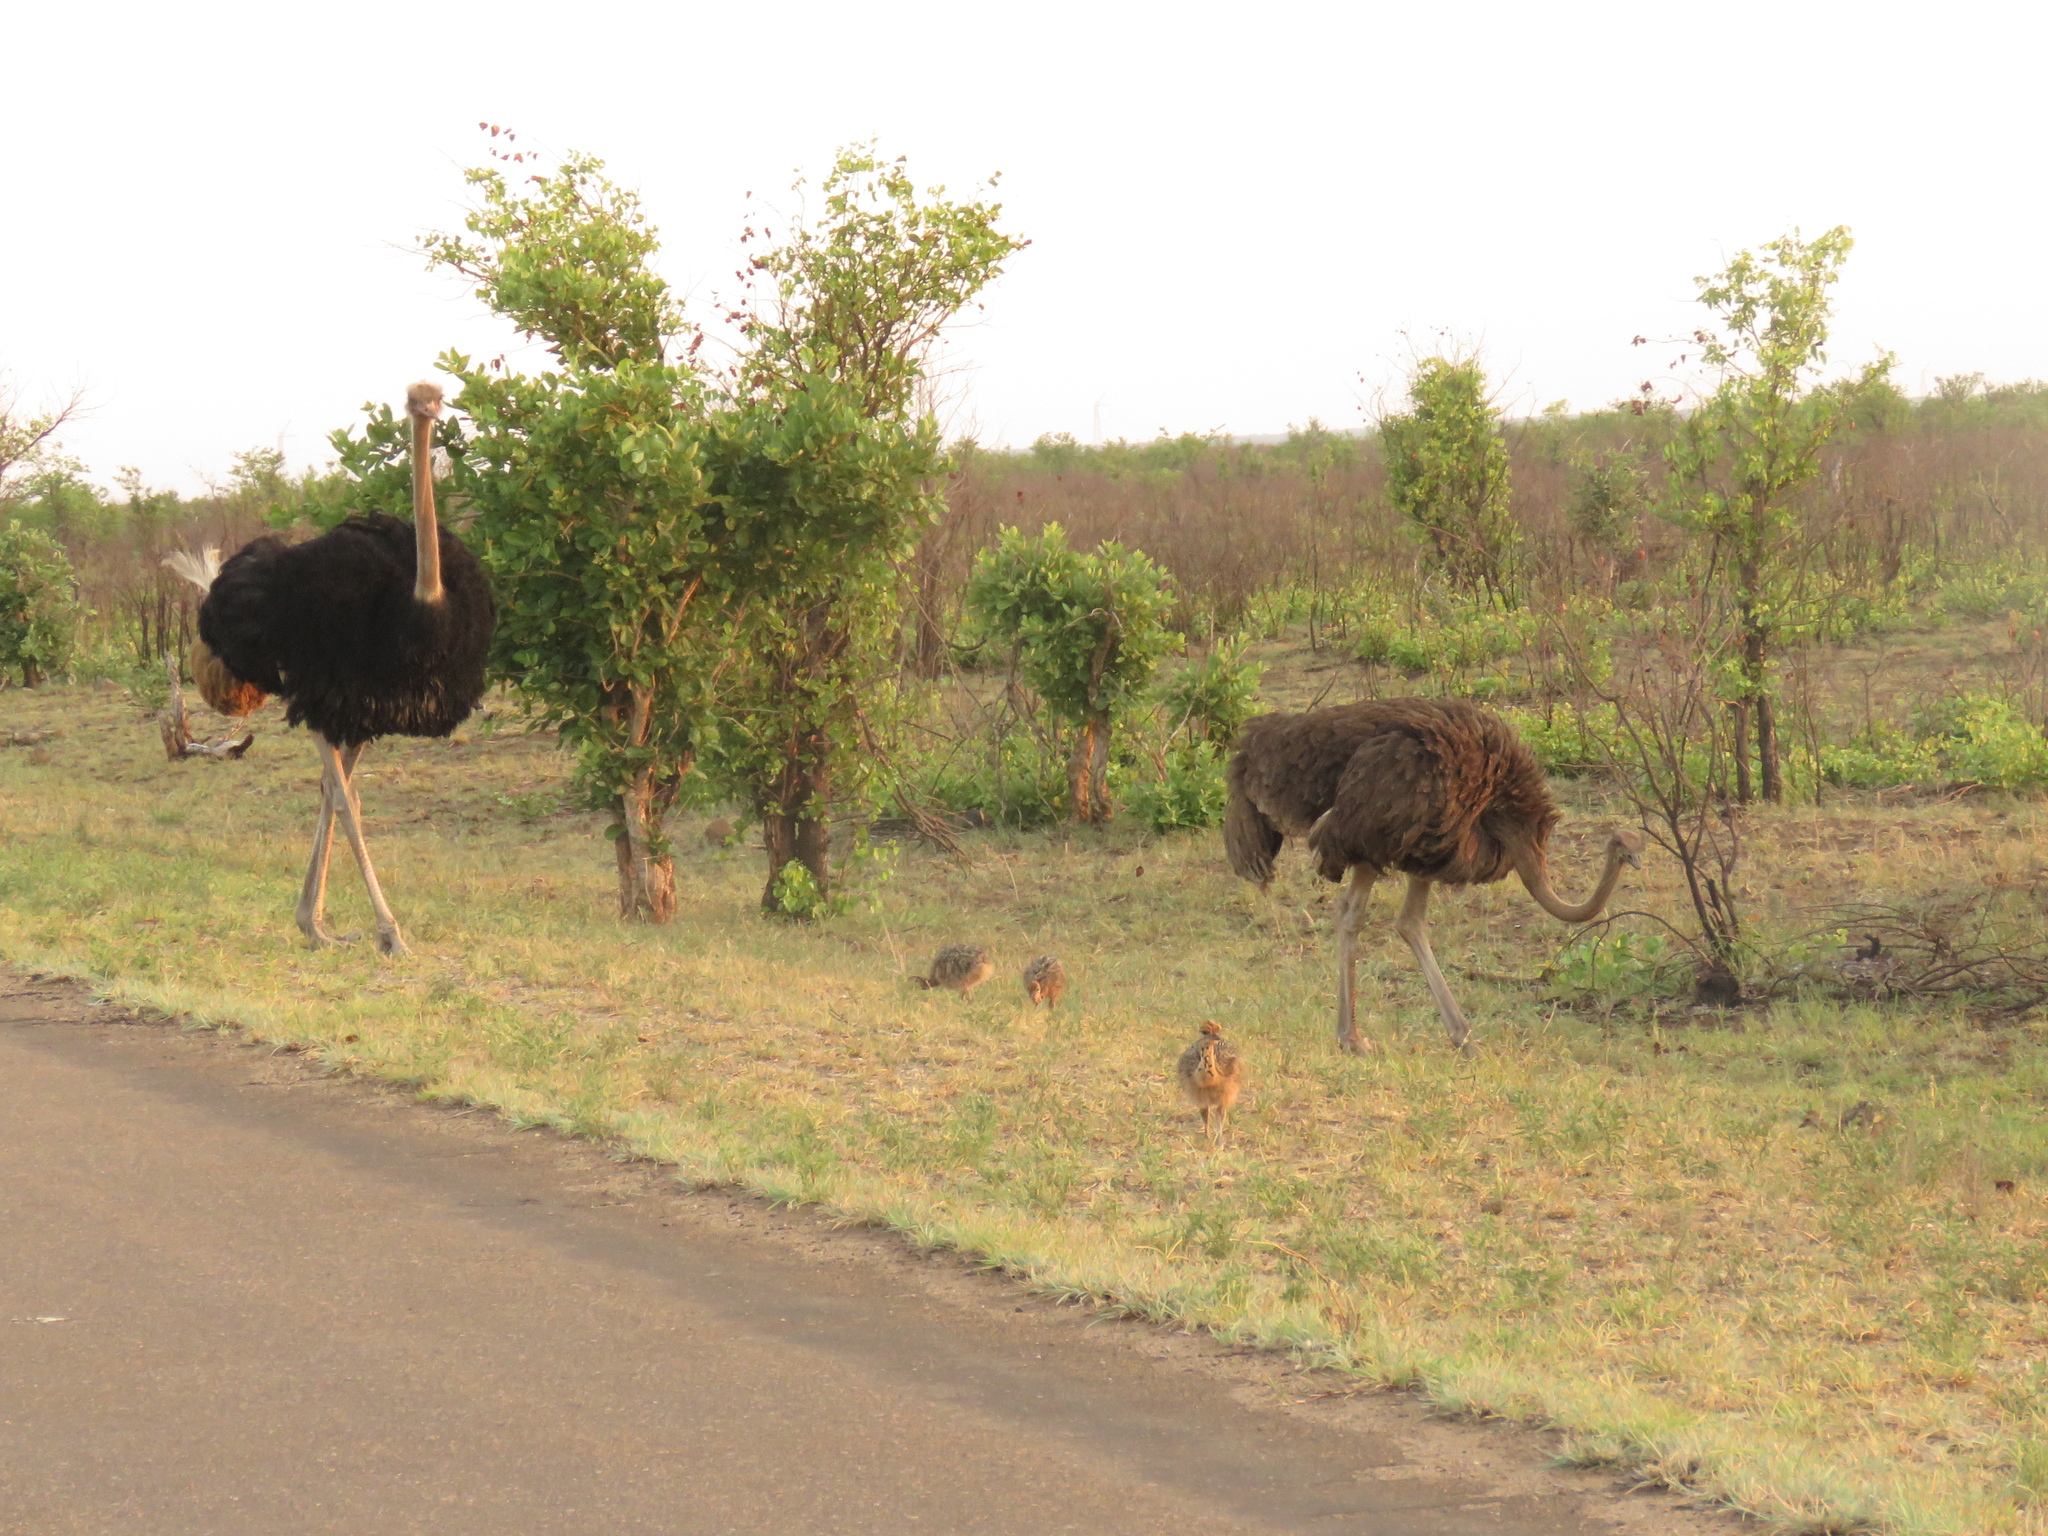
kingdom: Animalia
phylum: Chordata
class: Aves
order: Struthioniformes
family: Struthionidae
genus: Struthio
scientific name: Struthio camelus
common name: Common ostrich
